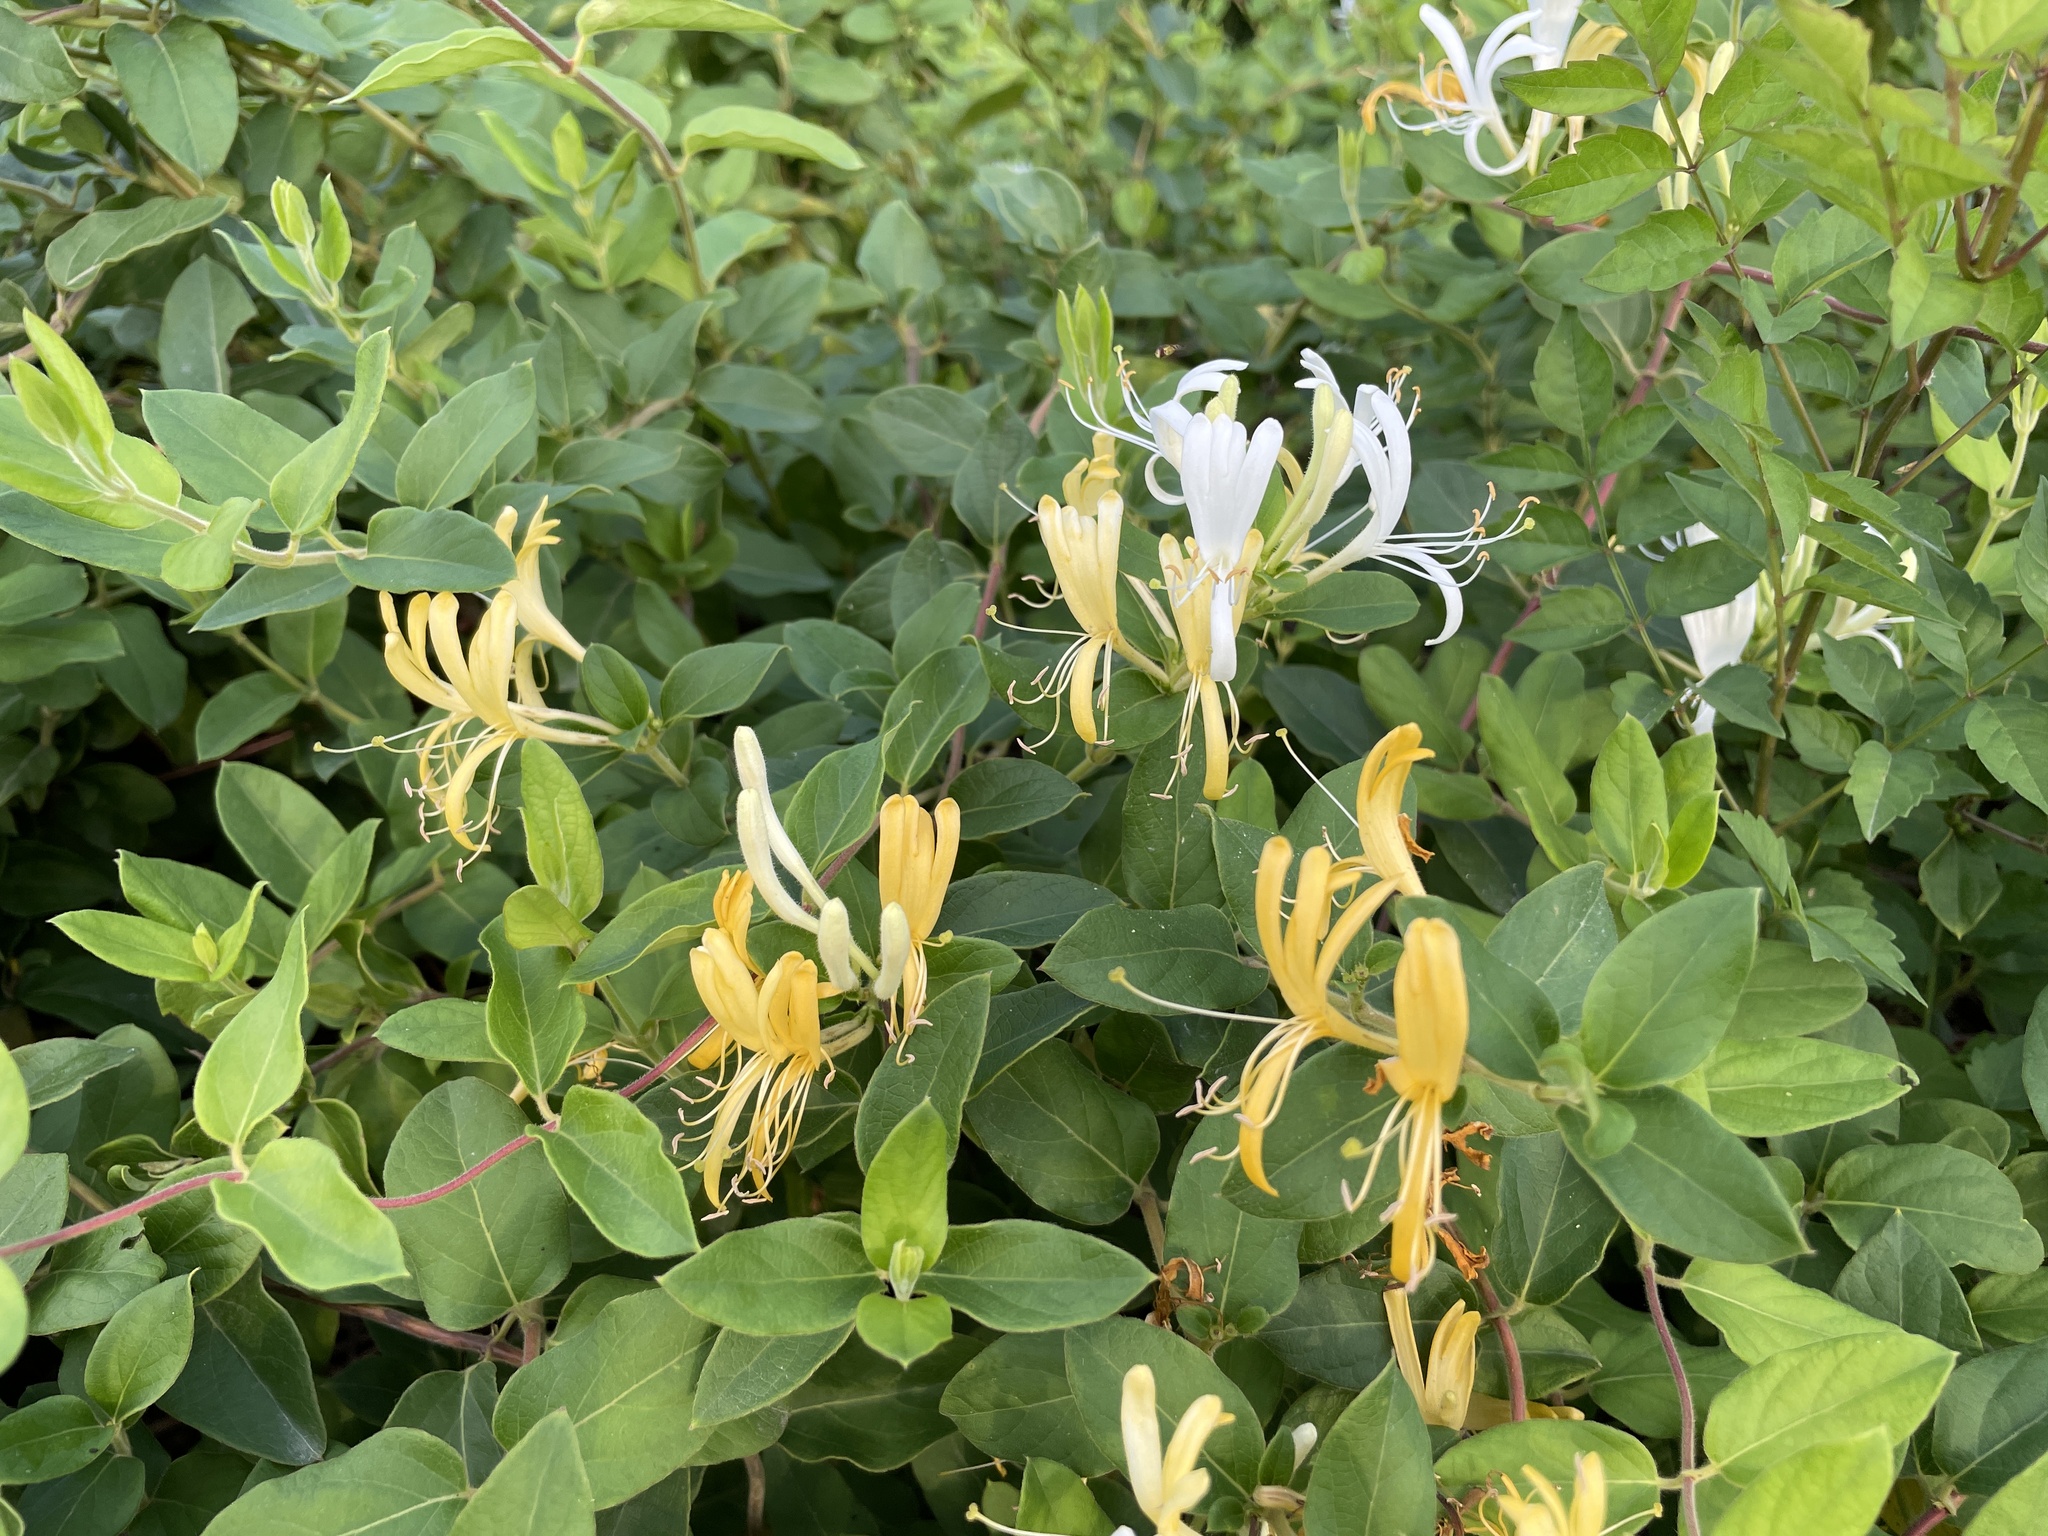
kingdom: Plantae
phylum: Tracheophyta
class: Magnoliopsida
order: Dipsacales
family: Caprifoliaceae
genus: Lonicera
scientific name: Lonicera japonica
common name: Japanese honeysuckle
